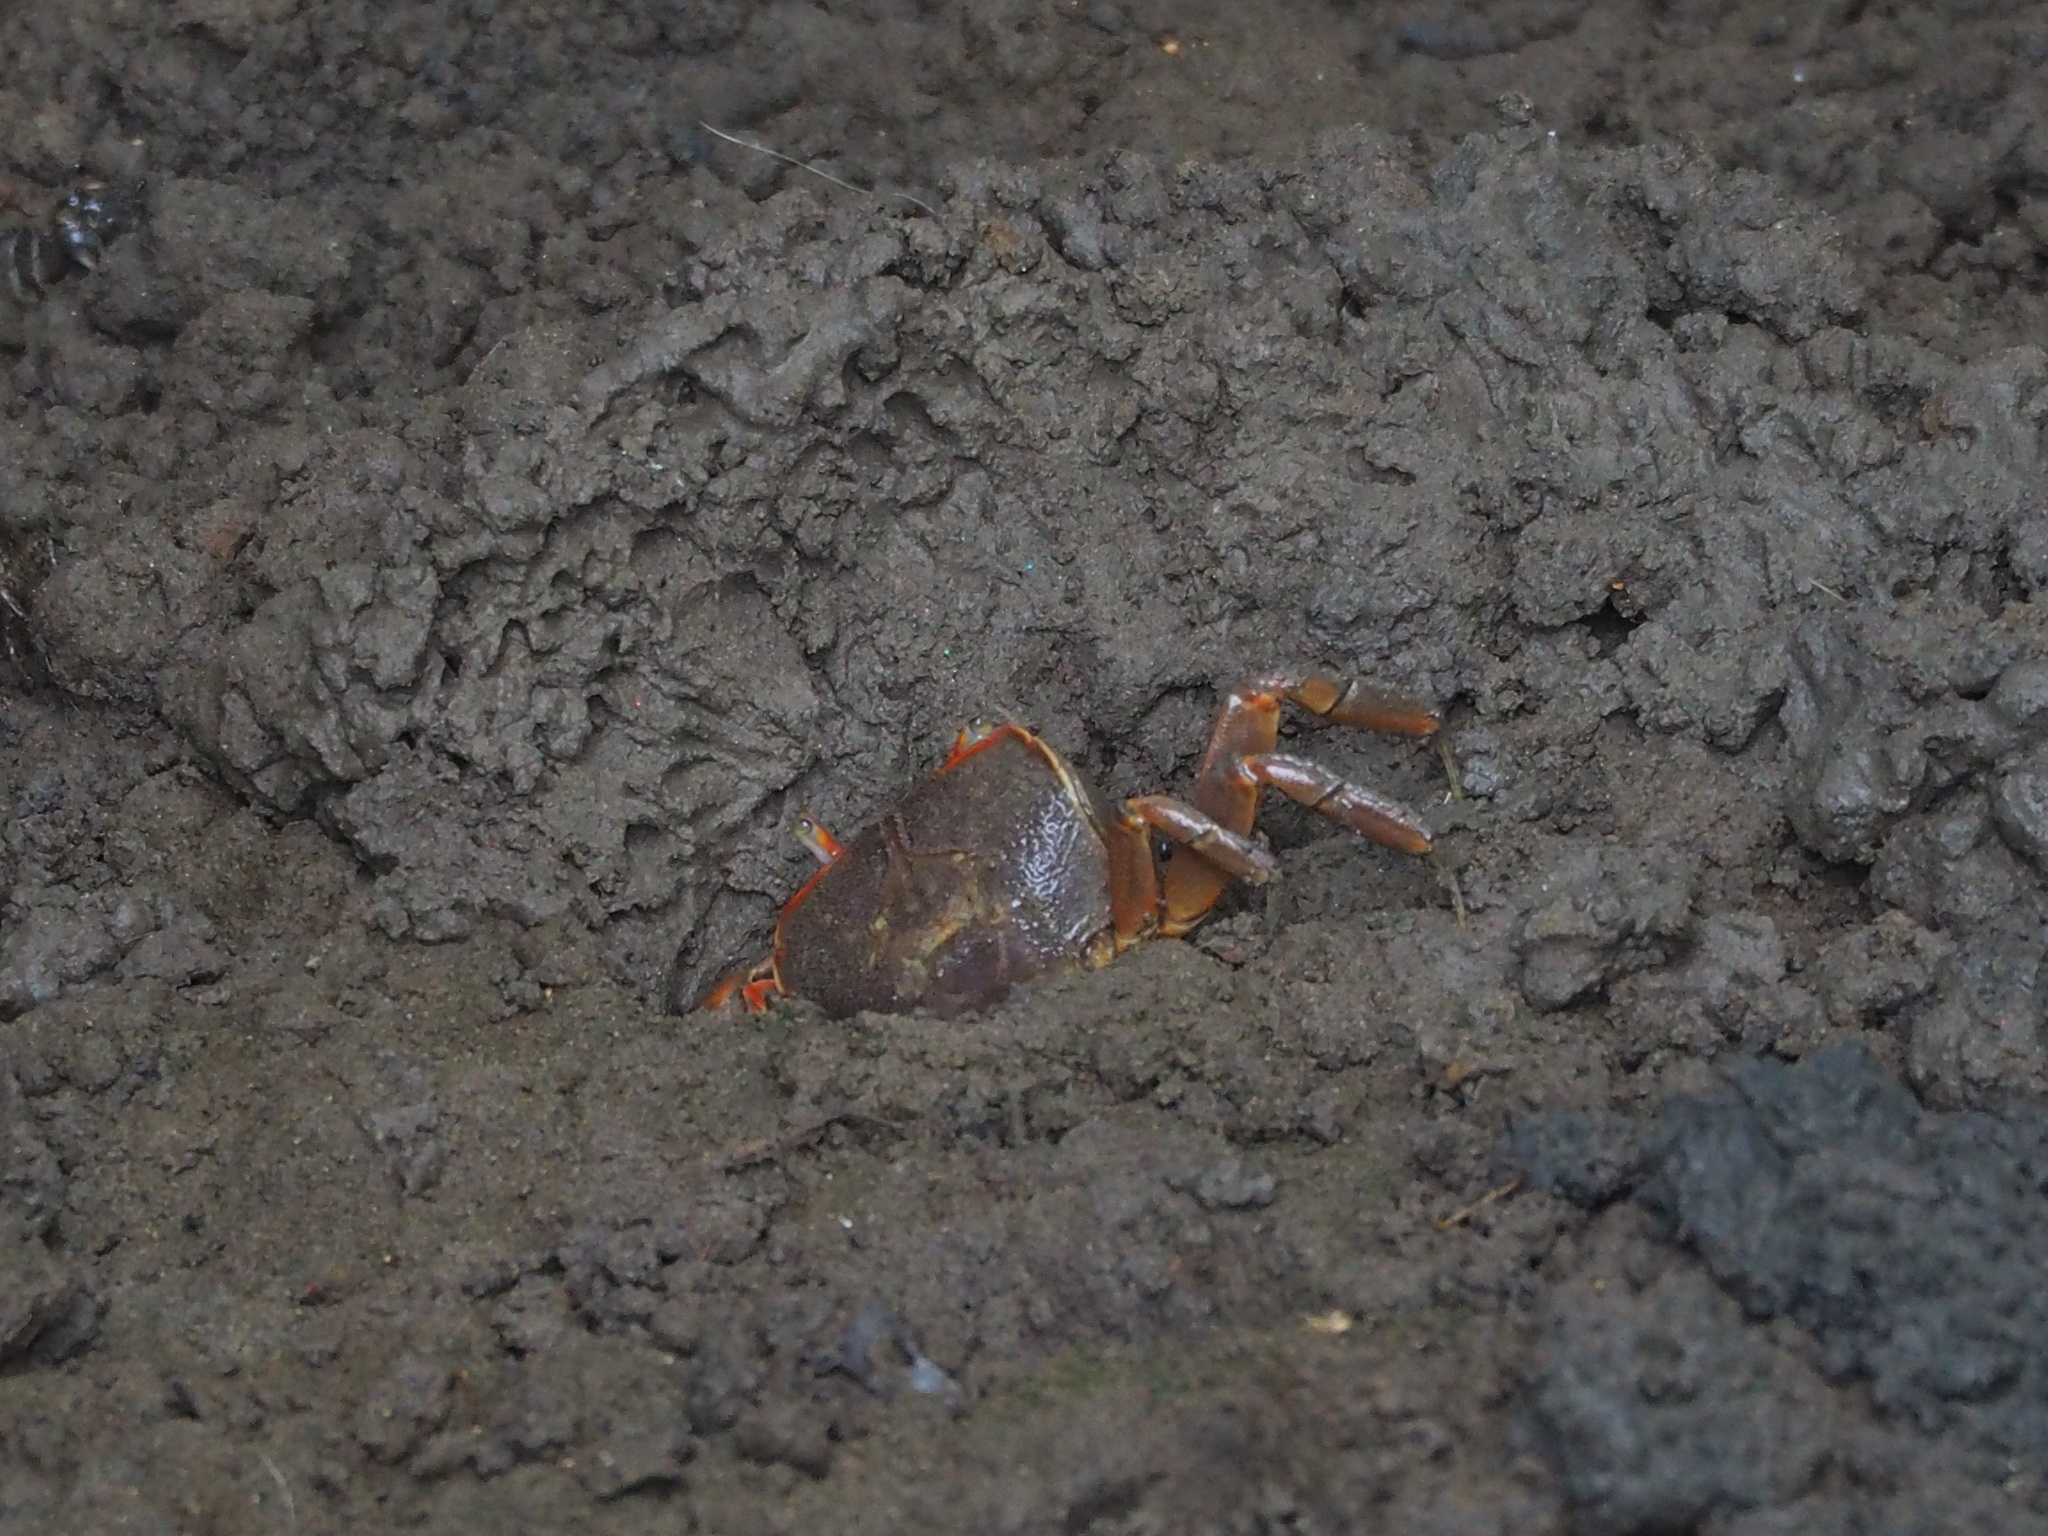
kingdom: Animalia
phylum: Arthropoda
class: Malacostraca
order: Decapoda
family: Varunidae
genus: Chasmagnathus
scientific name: Chasmagnathus convexus
